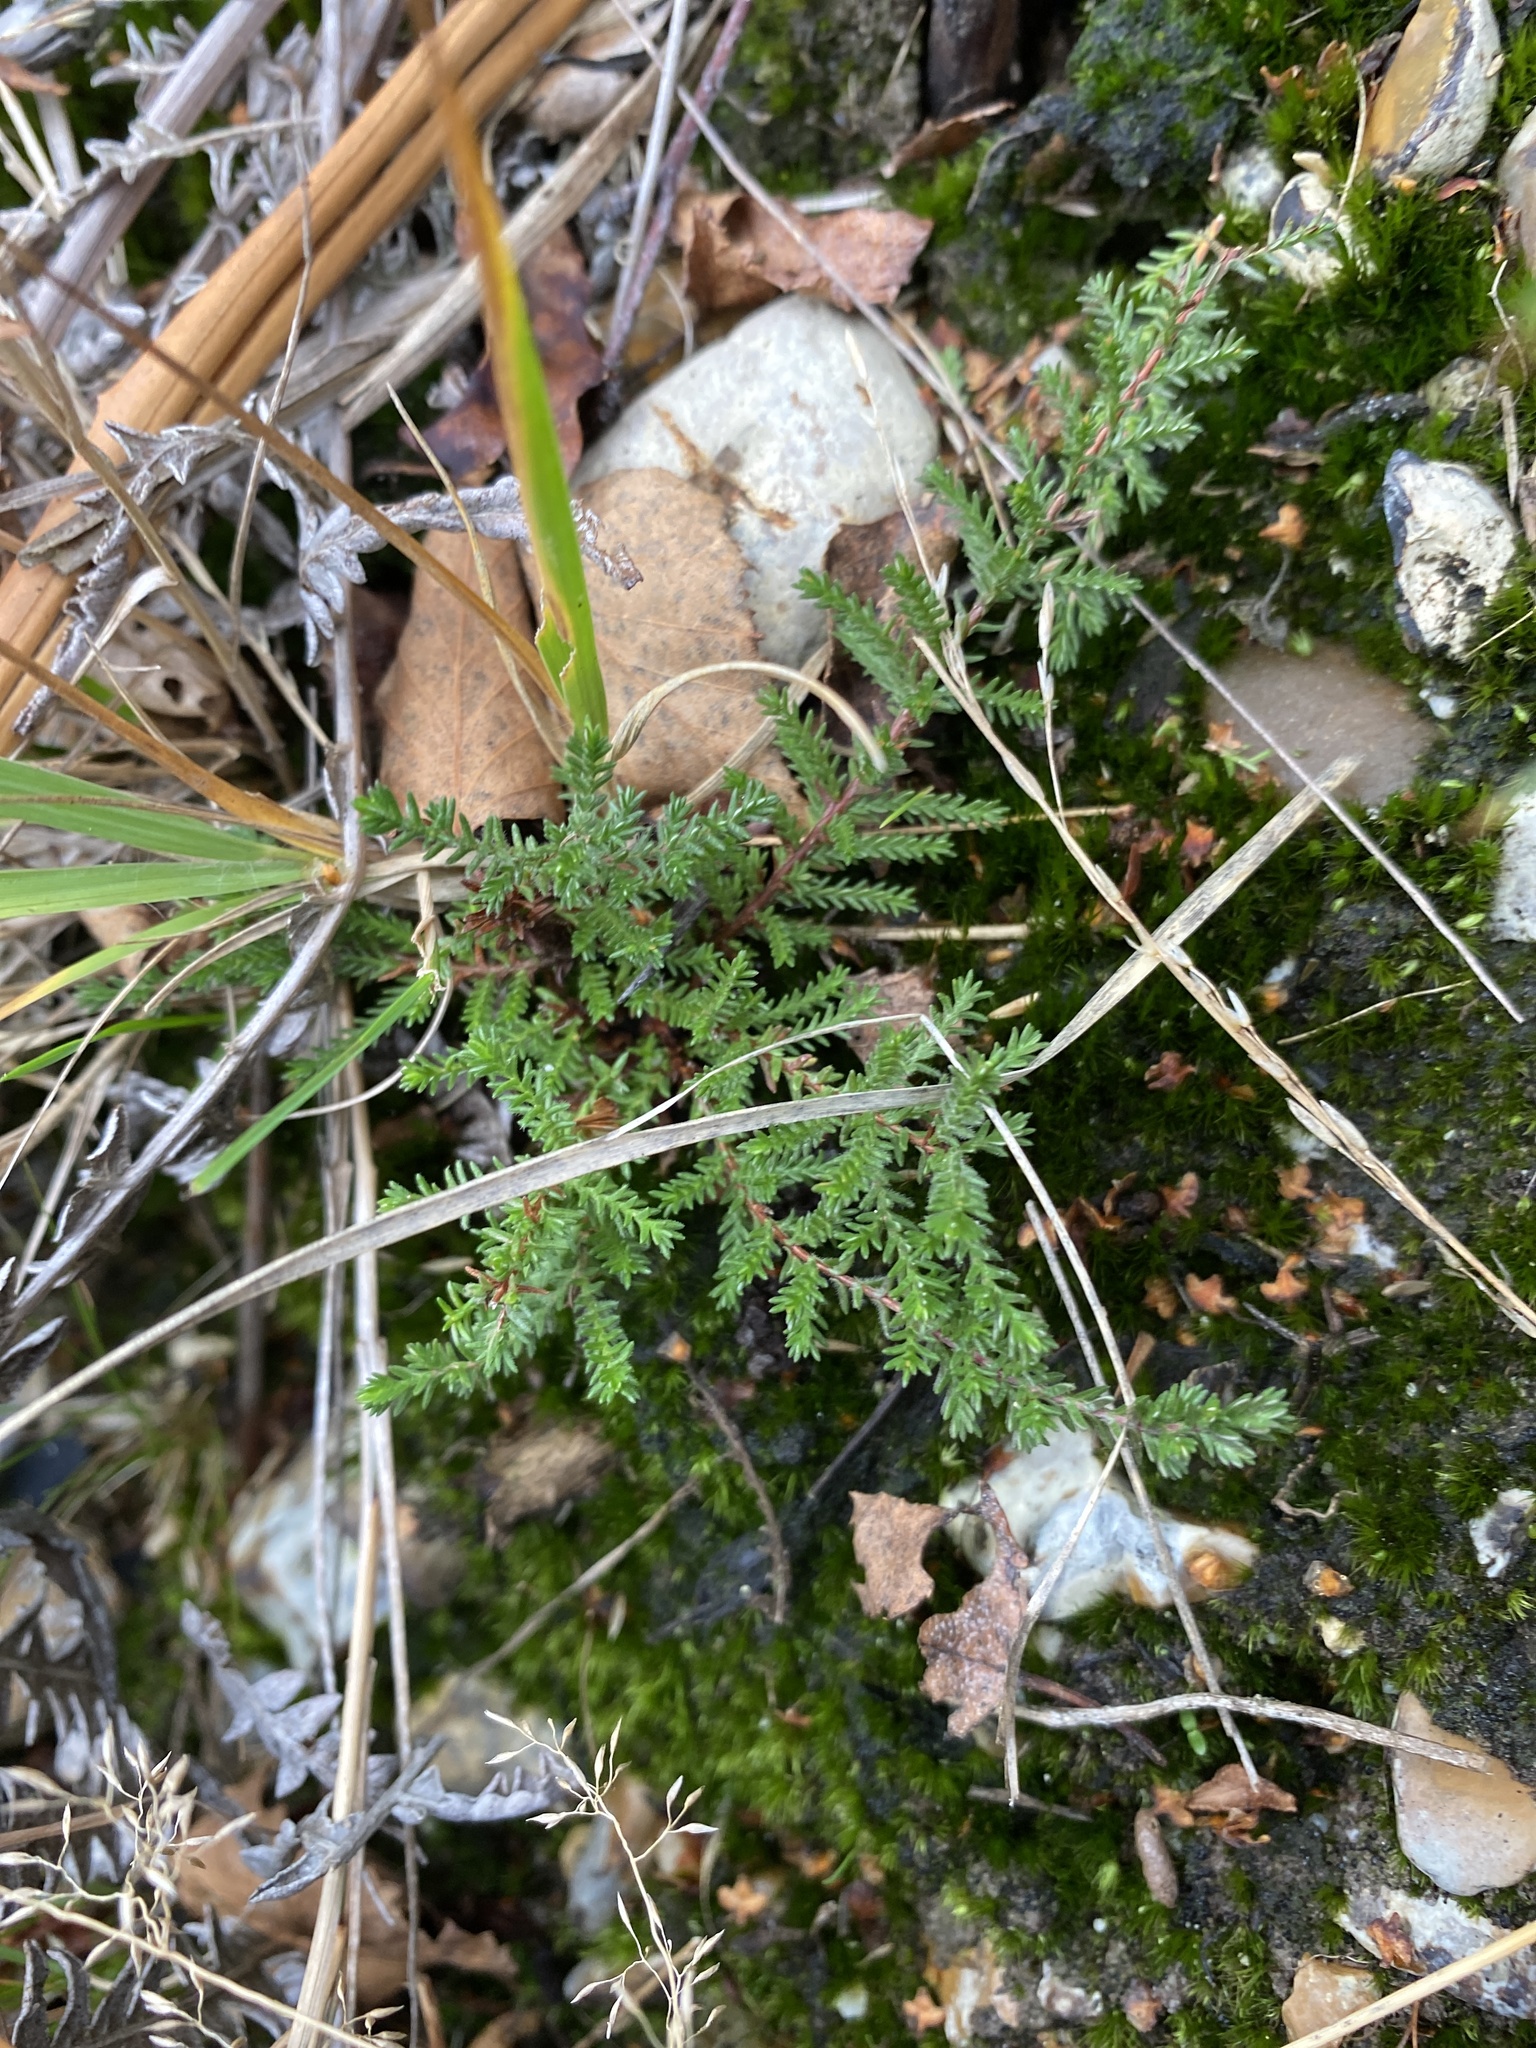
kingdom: Plantae
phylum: Tracheophyta
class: Magnoliopsida
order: Ericales
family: Ericaceae
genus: Calluna
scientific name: Calluna vulgaris
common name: Heather
